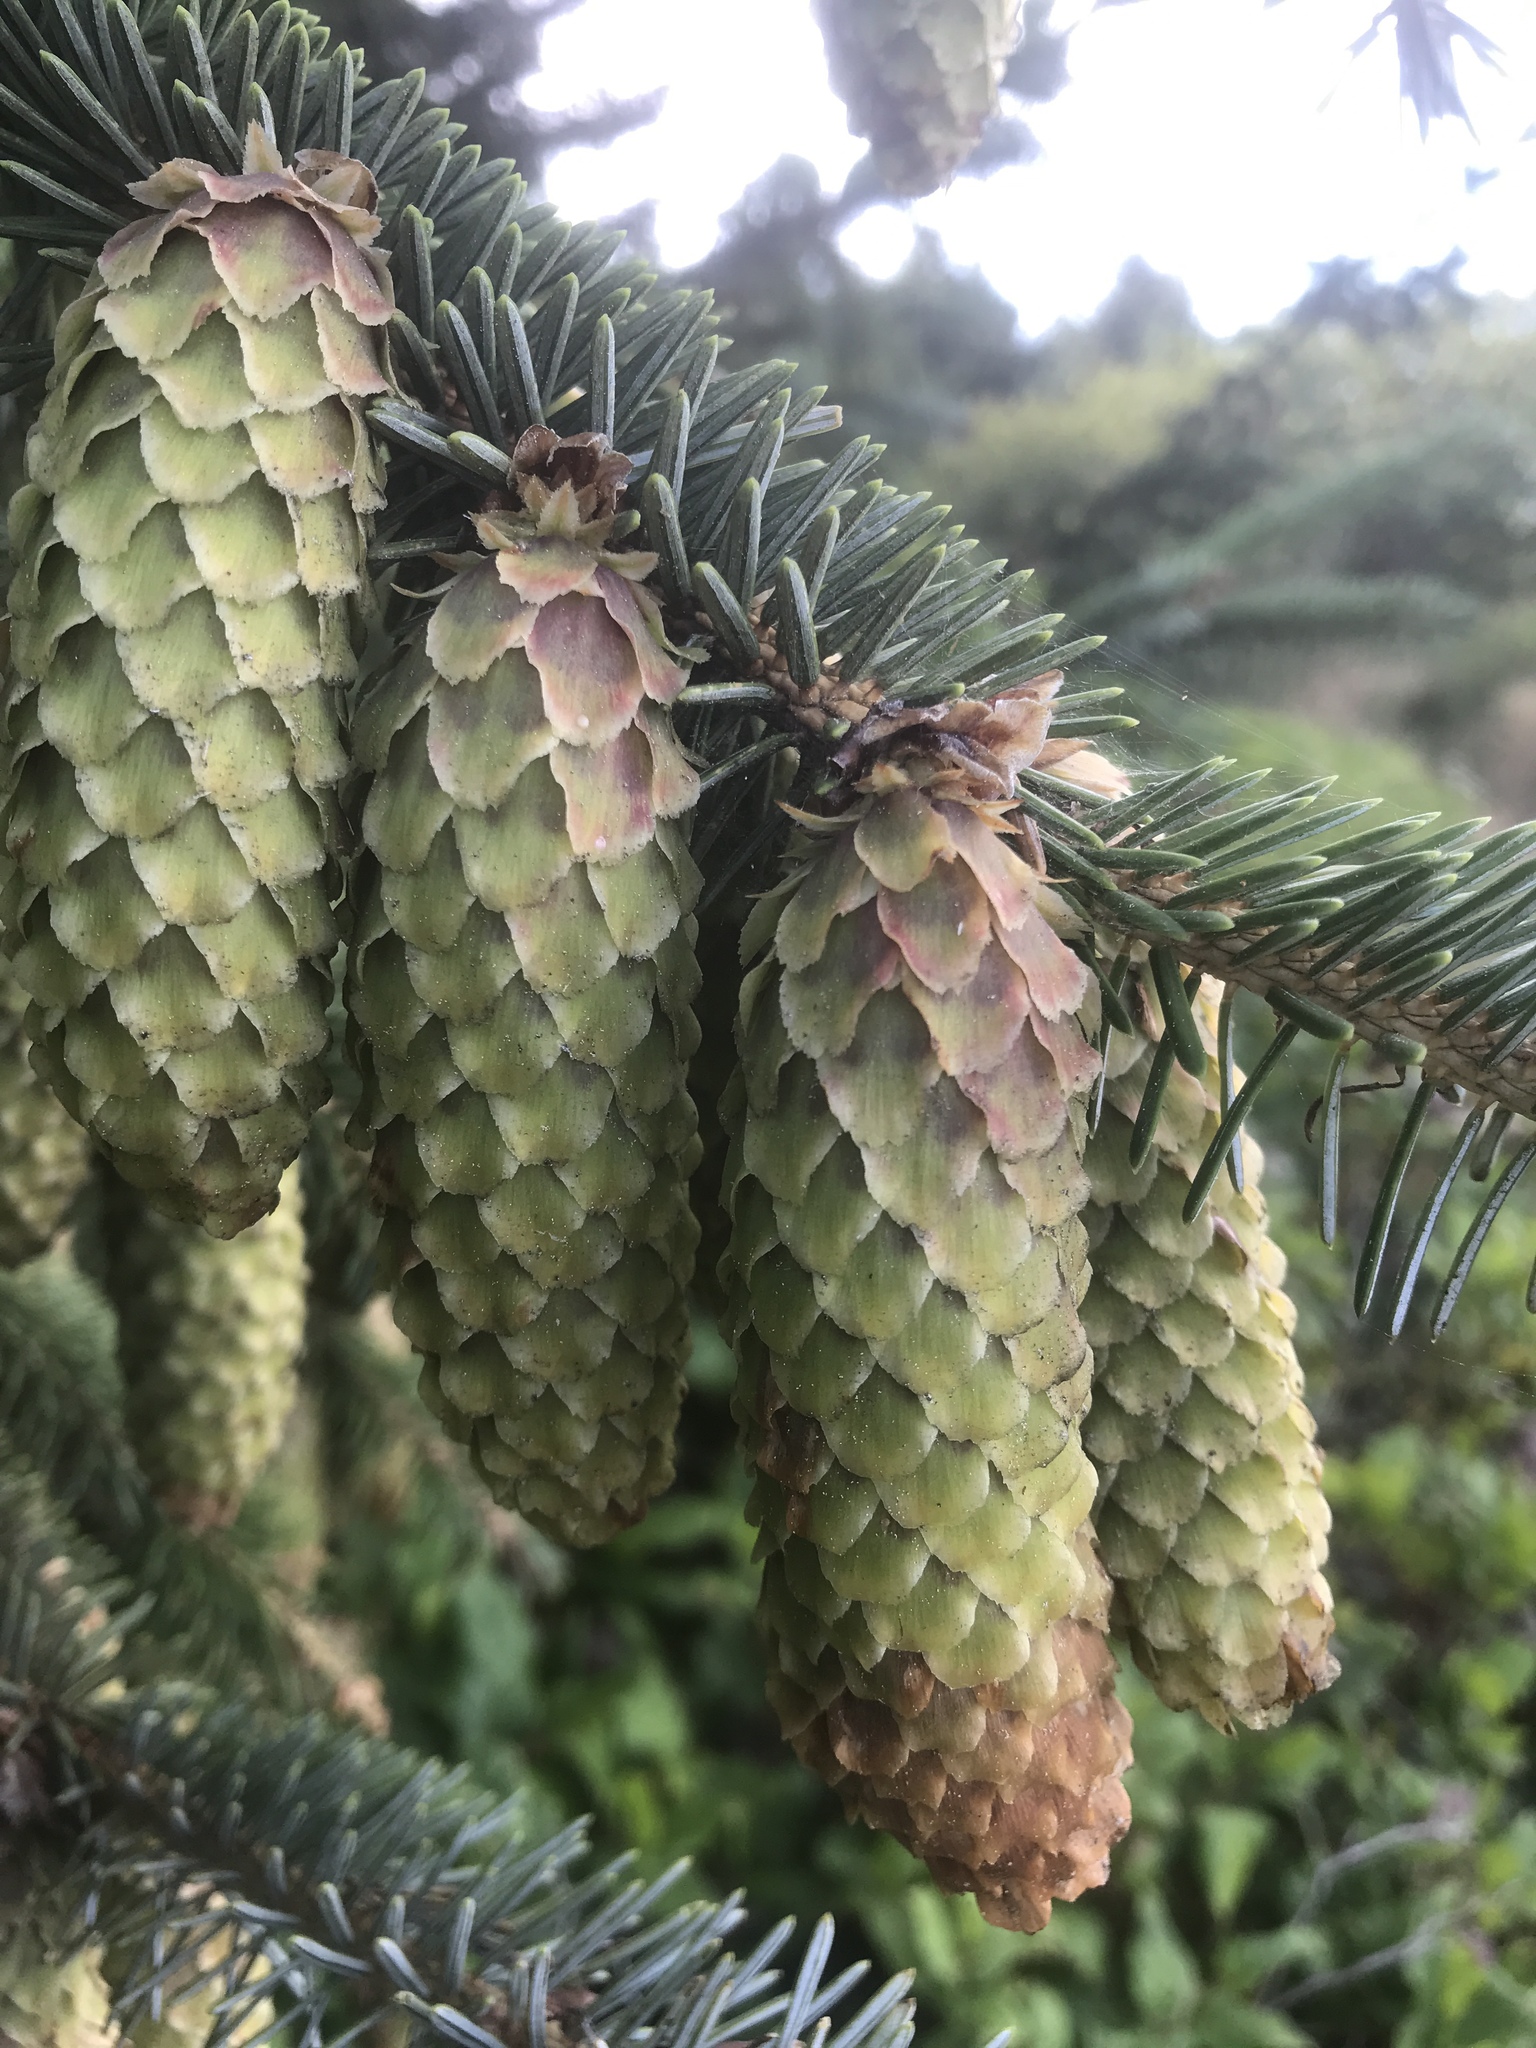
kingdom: Plantae
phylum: Tracheophyta
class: Pinopsida
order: Pinales
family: Pinaceae
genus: Picea
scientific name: Picea sitchensis
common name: Sitka spruce
